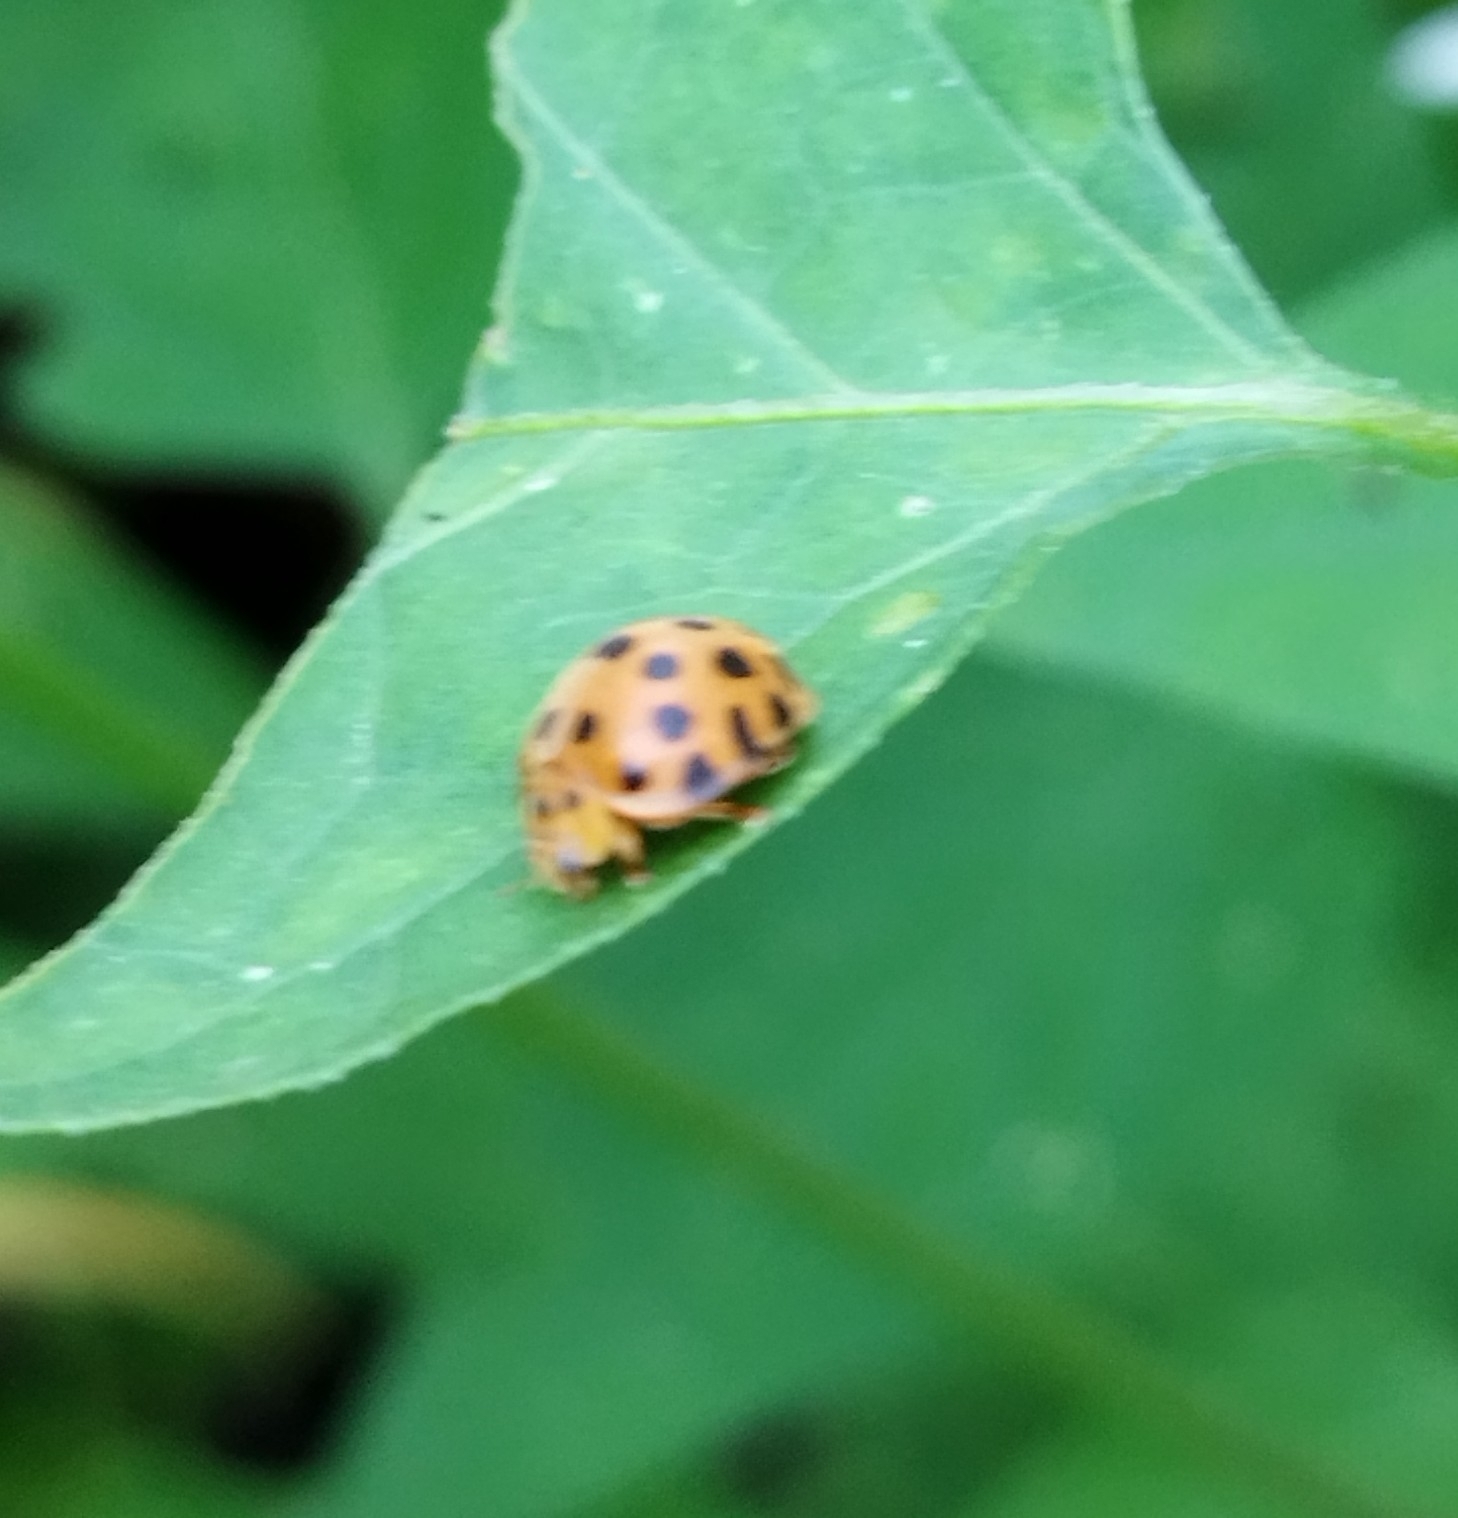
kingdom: Animalia
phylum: Arthropoda
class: Insecta
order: Coleoptera
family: Coccinellidae
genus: Henosepilachna
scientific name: Henosepilachna vigintioctopunctata
